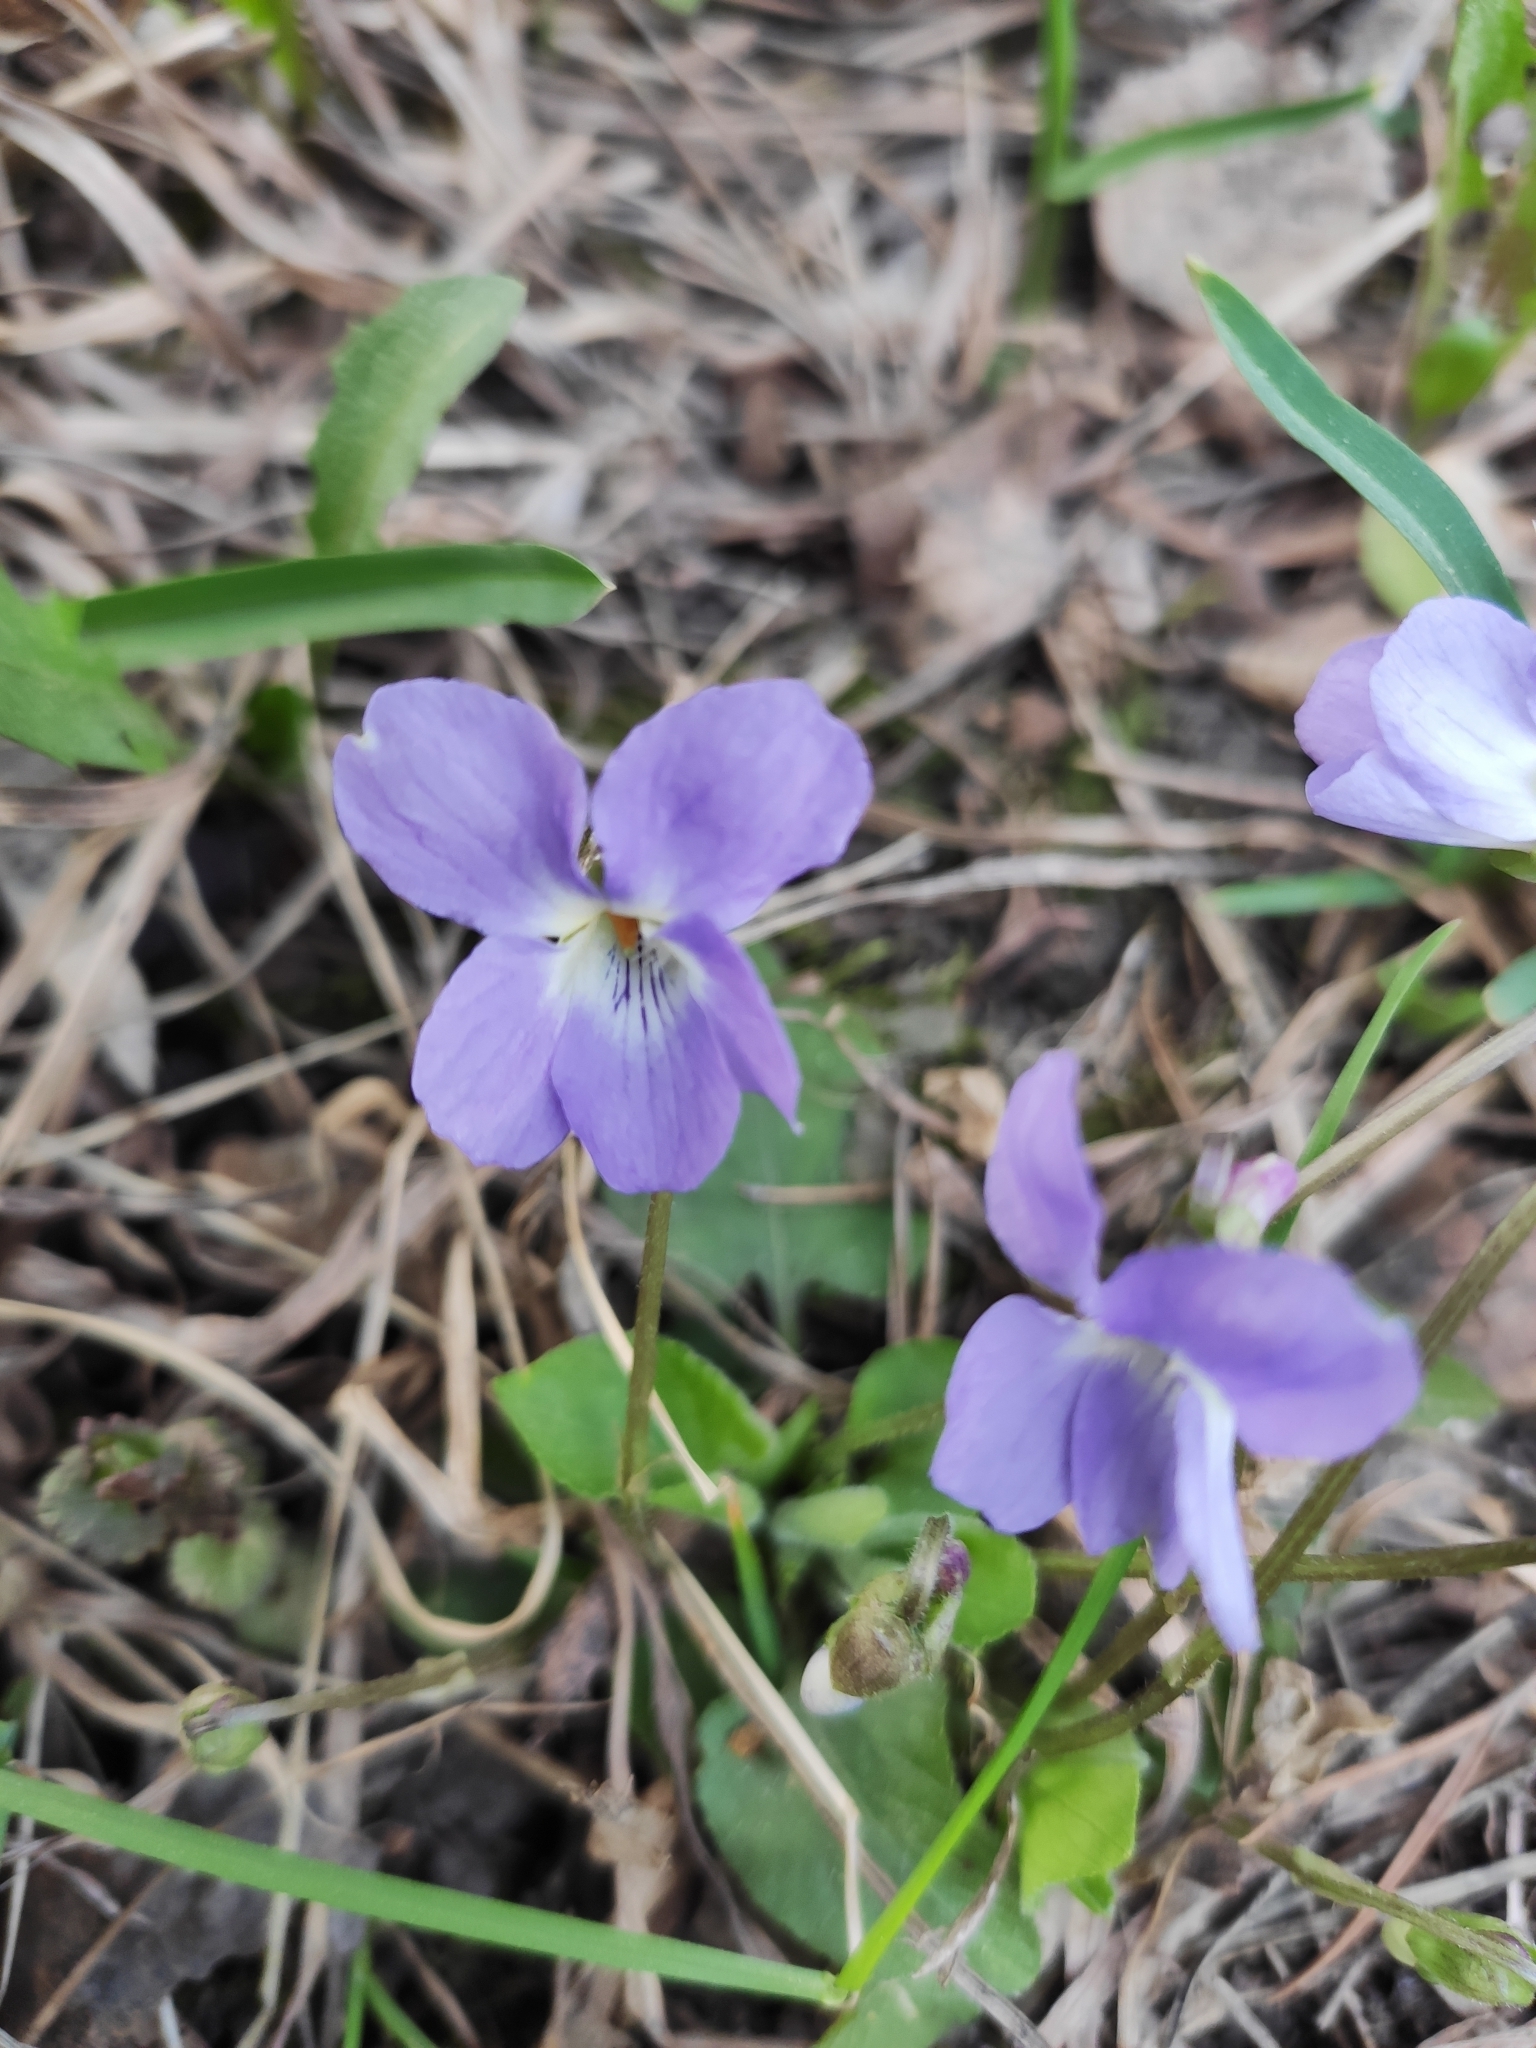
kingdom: Plantae
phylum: Tracheophyta
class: Magnoliopsida
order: Malpighiales
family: Violaceae
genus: Viola
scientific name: Viola hirta
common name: Hairy violet
